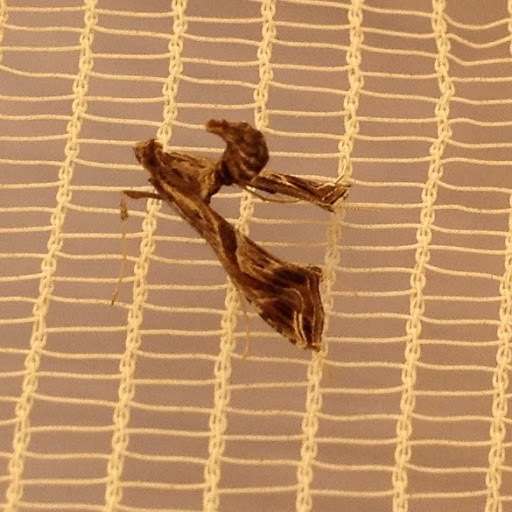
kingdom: Animalia
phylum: Arthropoda
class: Insecta
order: Lepidoptera
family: Crambidae
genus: Lineodes
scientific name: Lineodes integra
